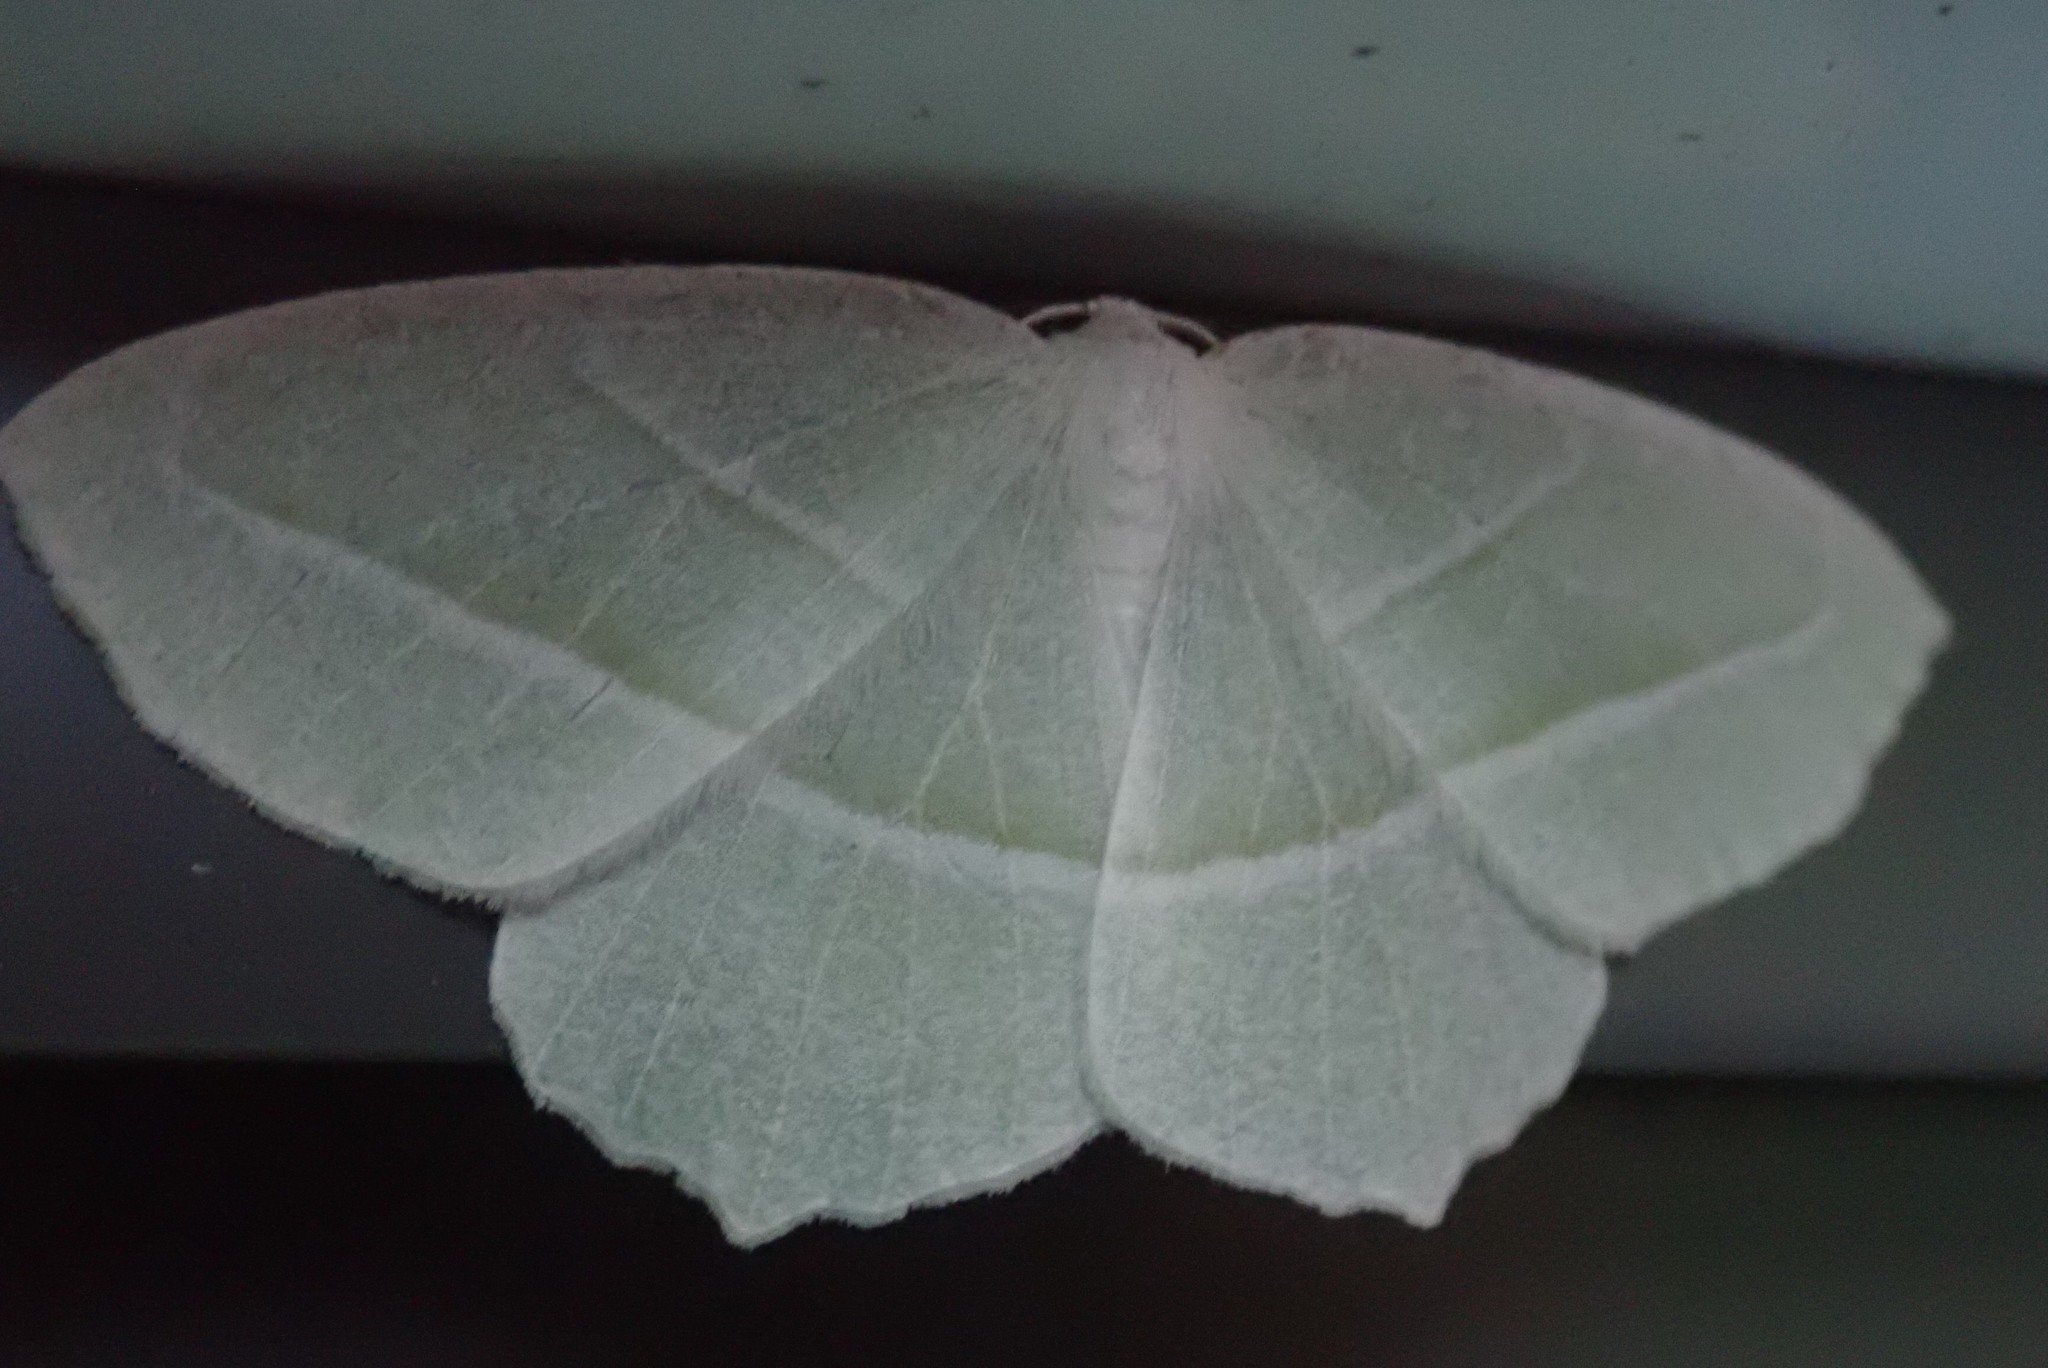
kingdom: Animalia
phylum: Arthropoda
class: Insecta
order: Lepidoptera
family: Geometridae
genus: Campaea
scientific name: Campaea perlata
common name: Fringed looper
